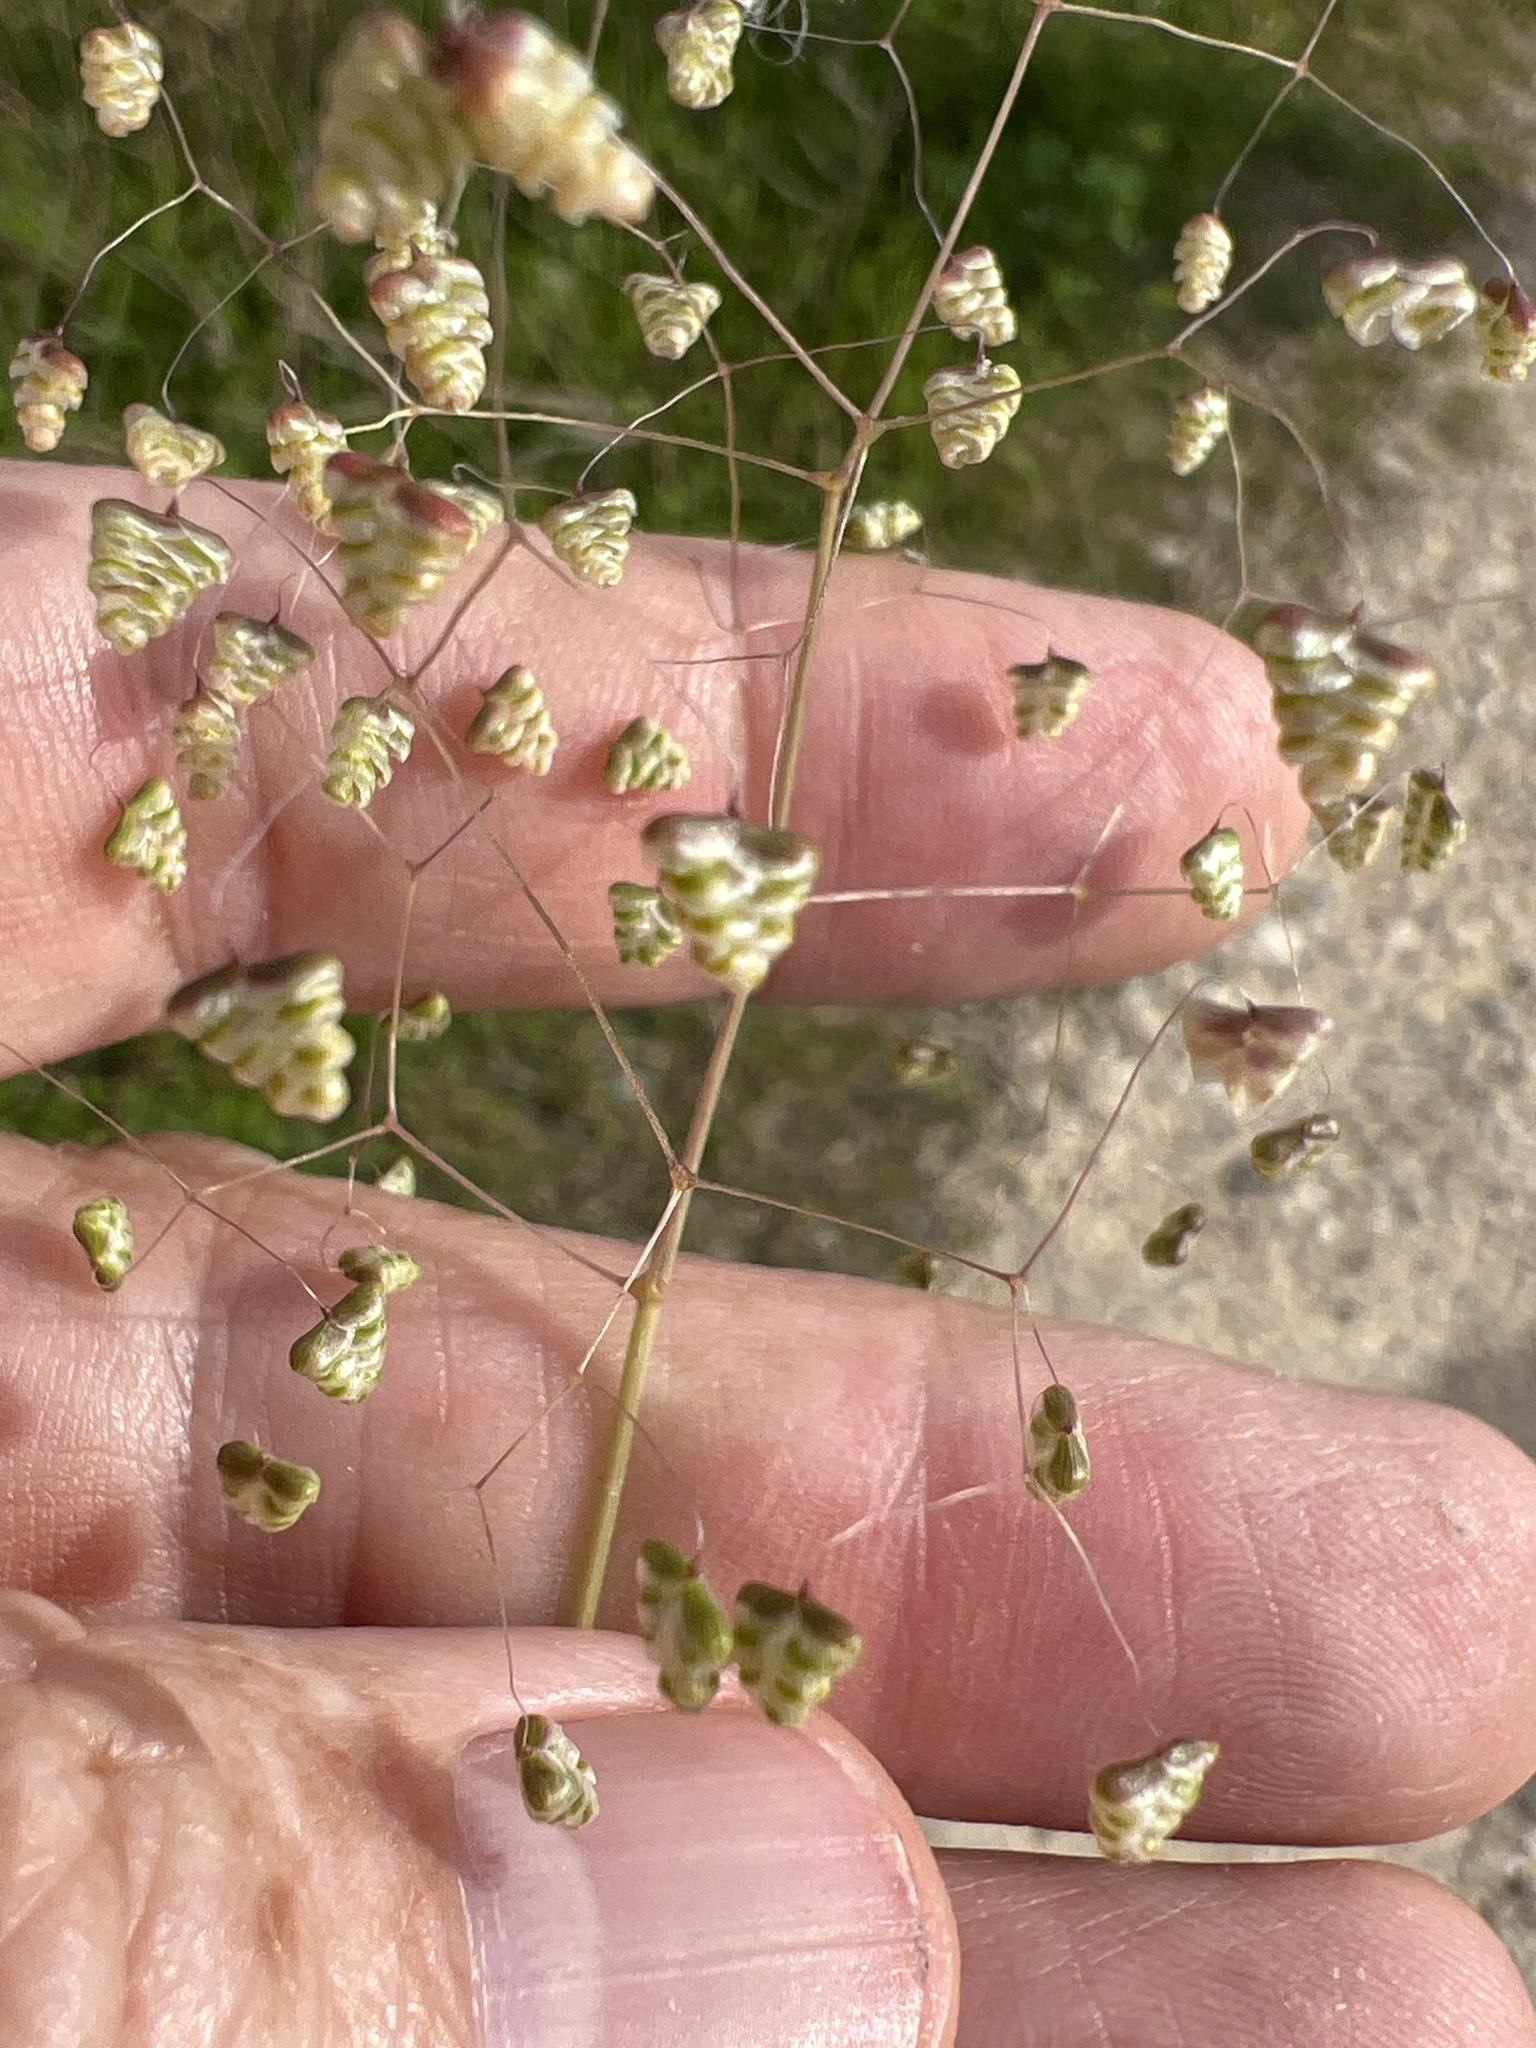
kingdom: Plantae
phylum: Tracheophyta
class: Liliopsida
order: Poales
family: Poaceae
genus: Briza
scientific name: Briza minor
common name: Lesser quaking-grass
